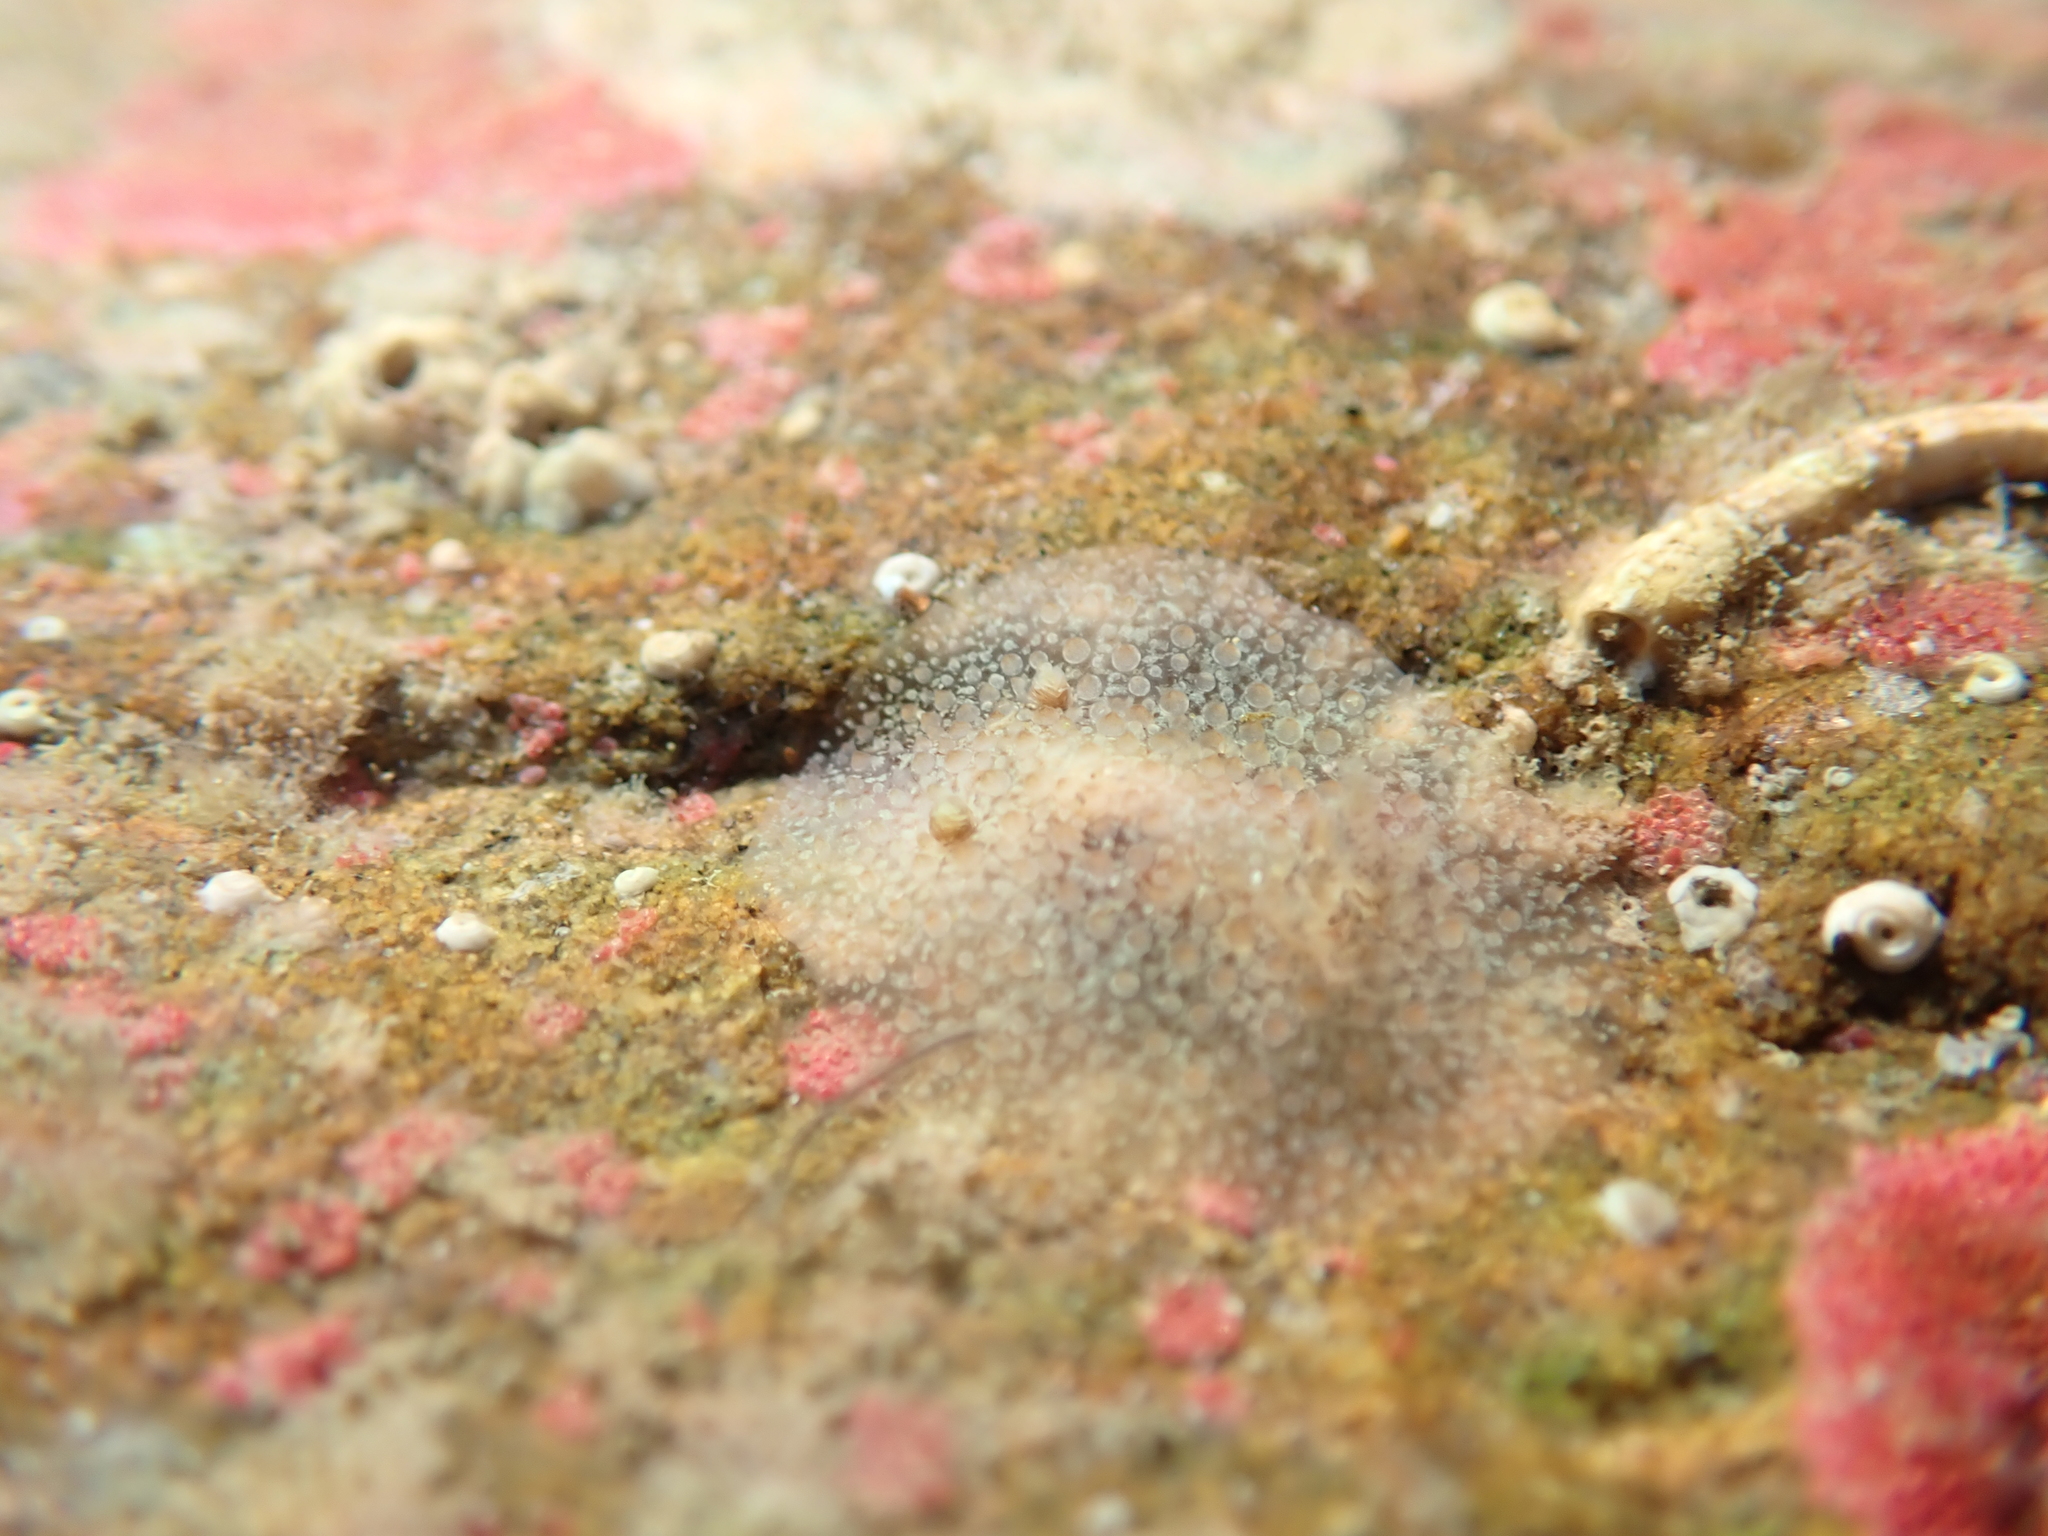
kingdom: Animalia
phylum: Mollusca
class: Gastropoda
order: Nudibranchia
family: Onchidorididae
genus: Acanthodoris
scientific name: Acanthodoris mollicella
